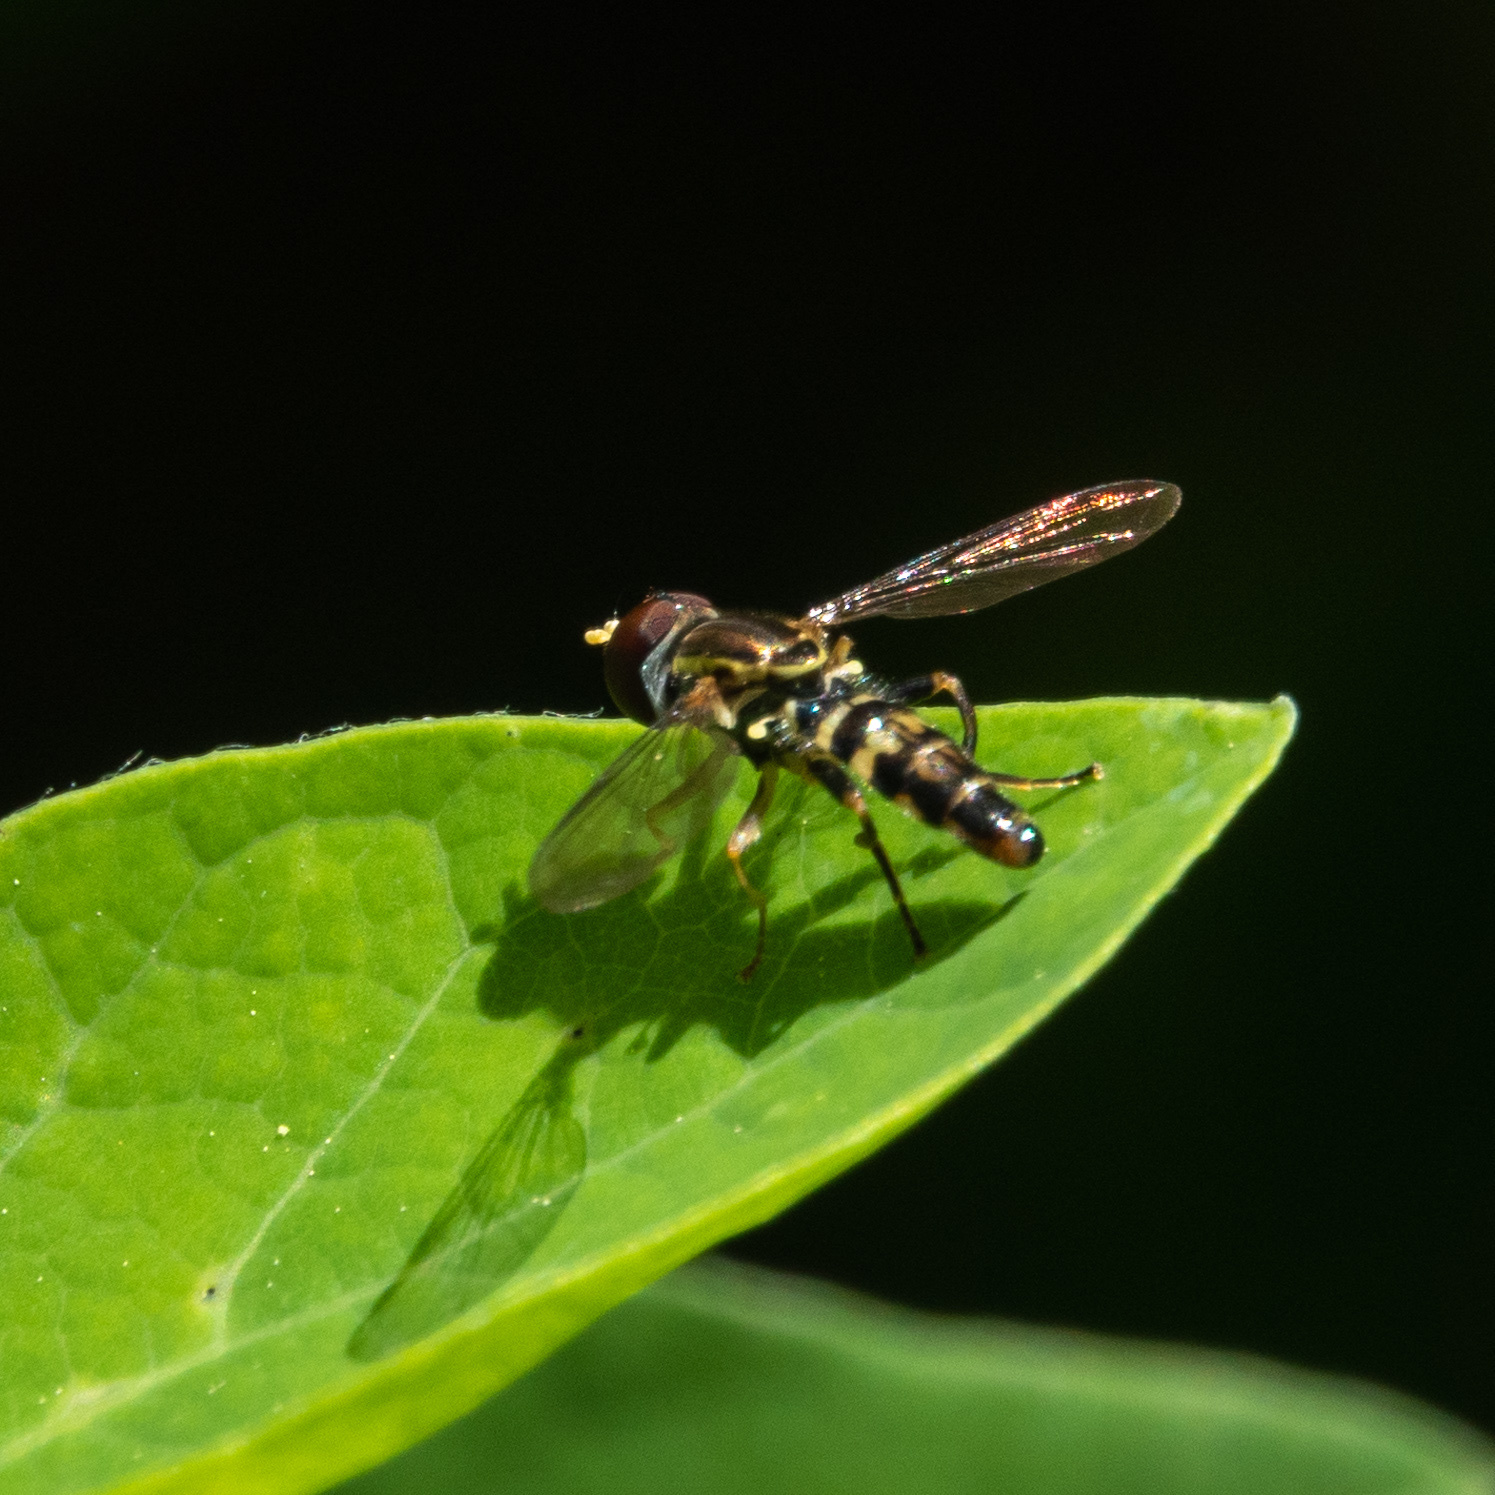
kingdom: Animalia
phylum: Arthropoda
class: Insecta
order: Diptera
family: Syrphidae
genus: Toxomerus
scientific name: Toxomerus geminatus
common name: Eastern calligrapher
